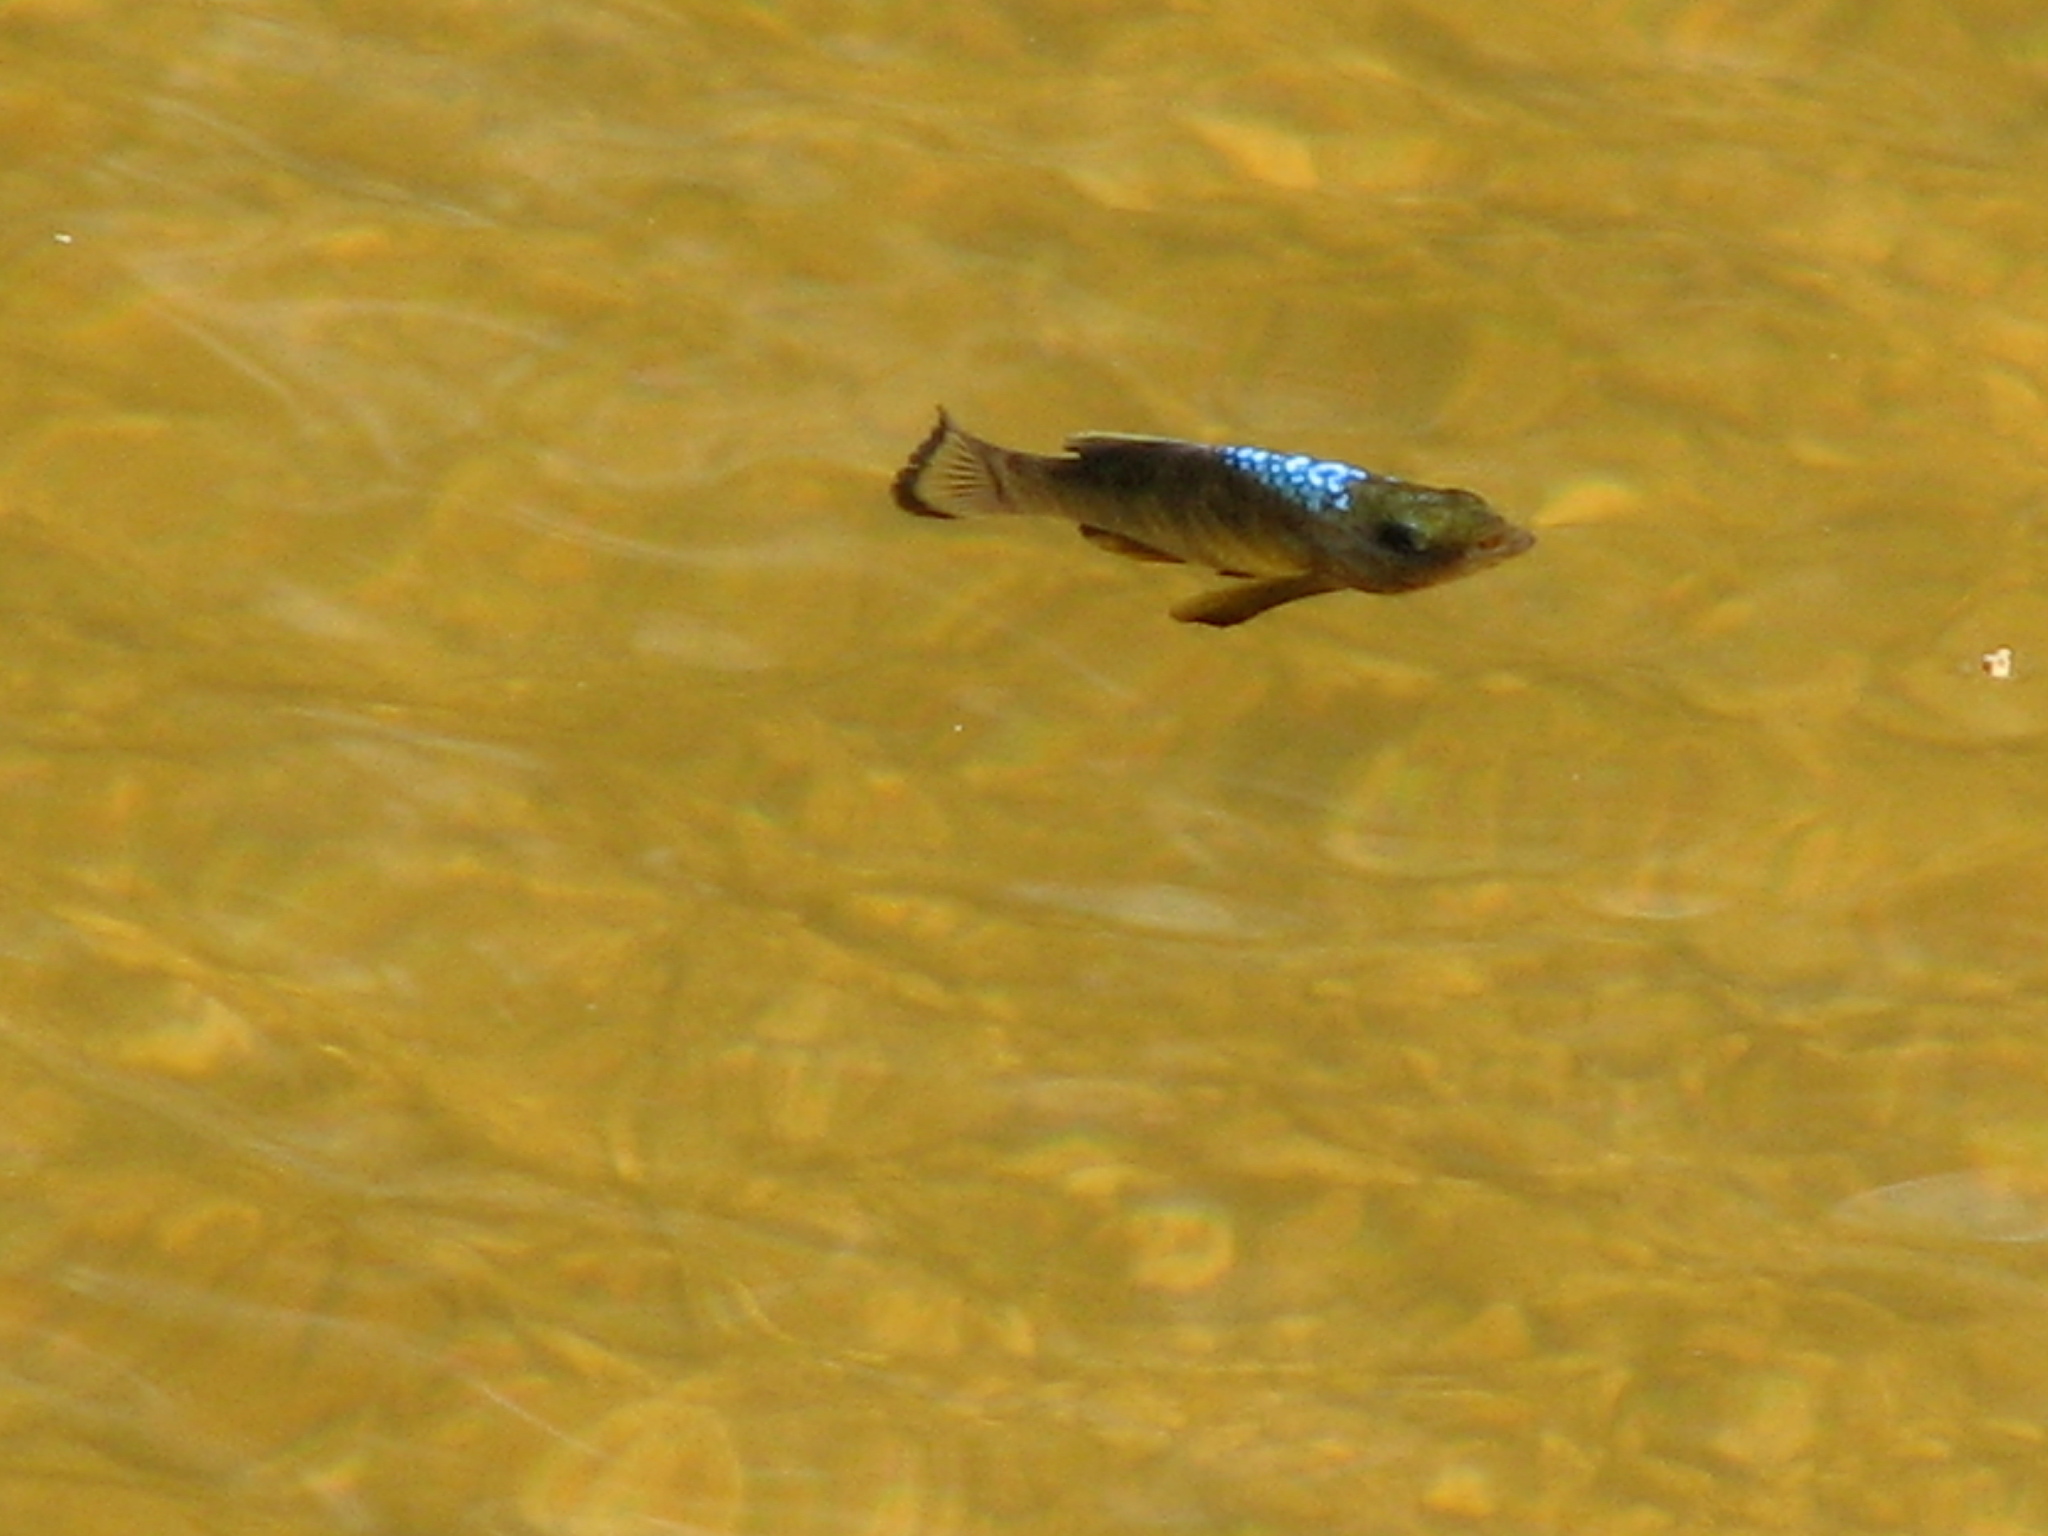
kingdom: Animalia
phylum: Chordata
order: Cyprinodontiformes
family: Cyprinodontidae
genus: Cyprinodon
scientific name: Cyprinodon variegatus
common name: Sheepshead minnow
